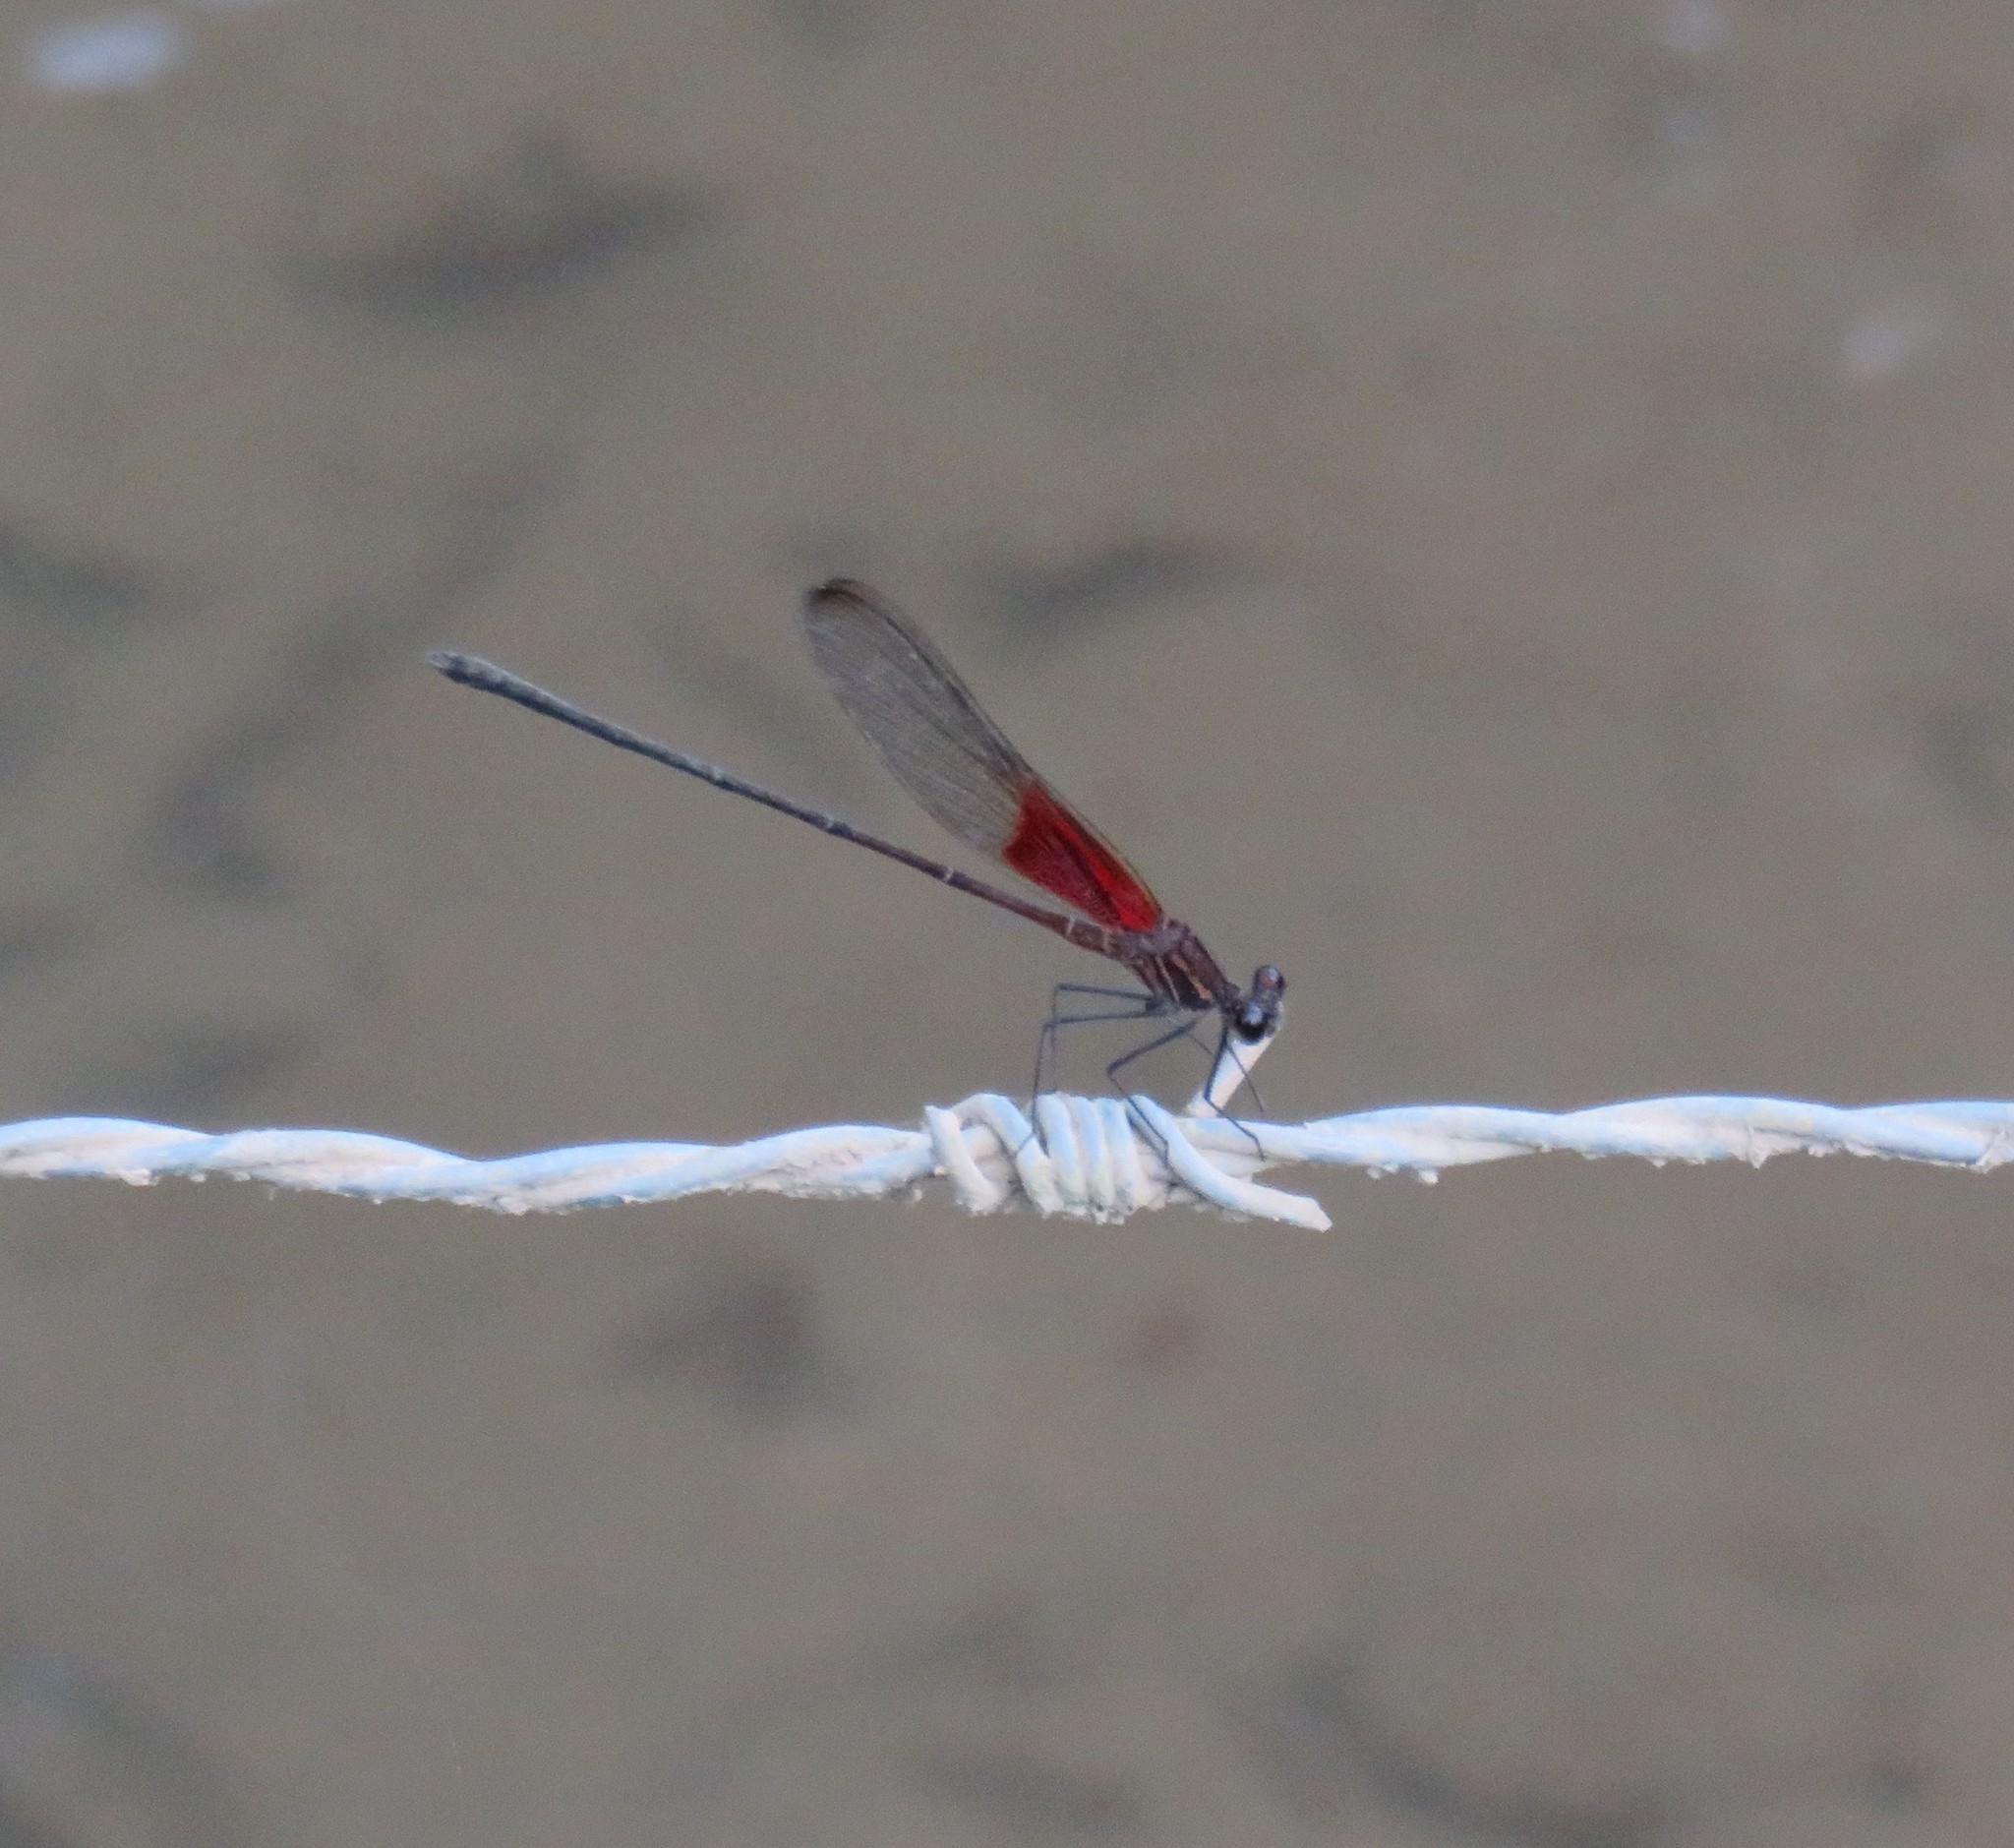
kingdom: Animalia
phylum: Arthropoda
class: Insecta
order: Odonata
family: Calopterygidae
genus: Hetaerina
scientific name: Hetaerina titia
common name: Smoky rubyspot
